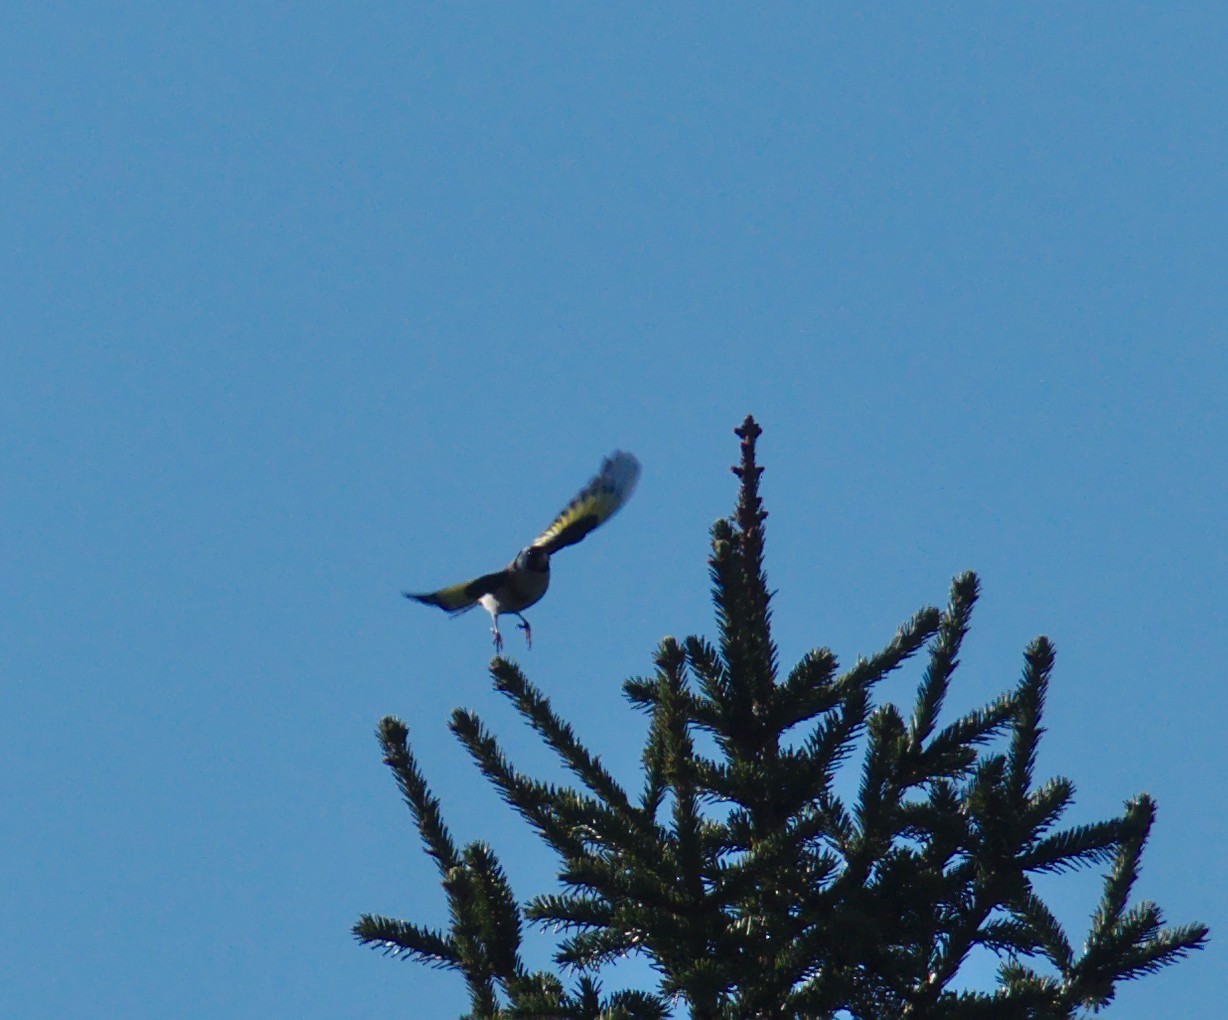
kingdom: Animalia
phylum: Chordata
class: Aves
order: Passeriformes
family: Fringillidae
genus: Carduelis
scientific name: Carduelis carduelis
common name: European goldfinch
